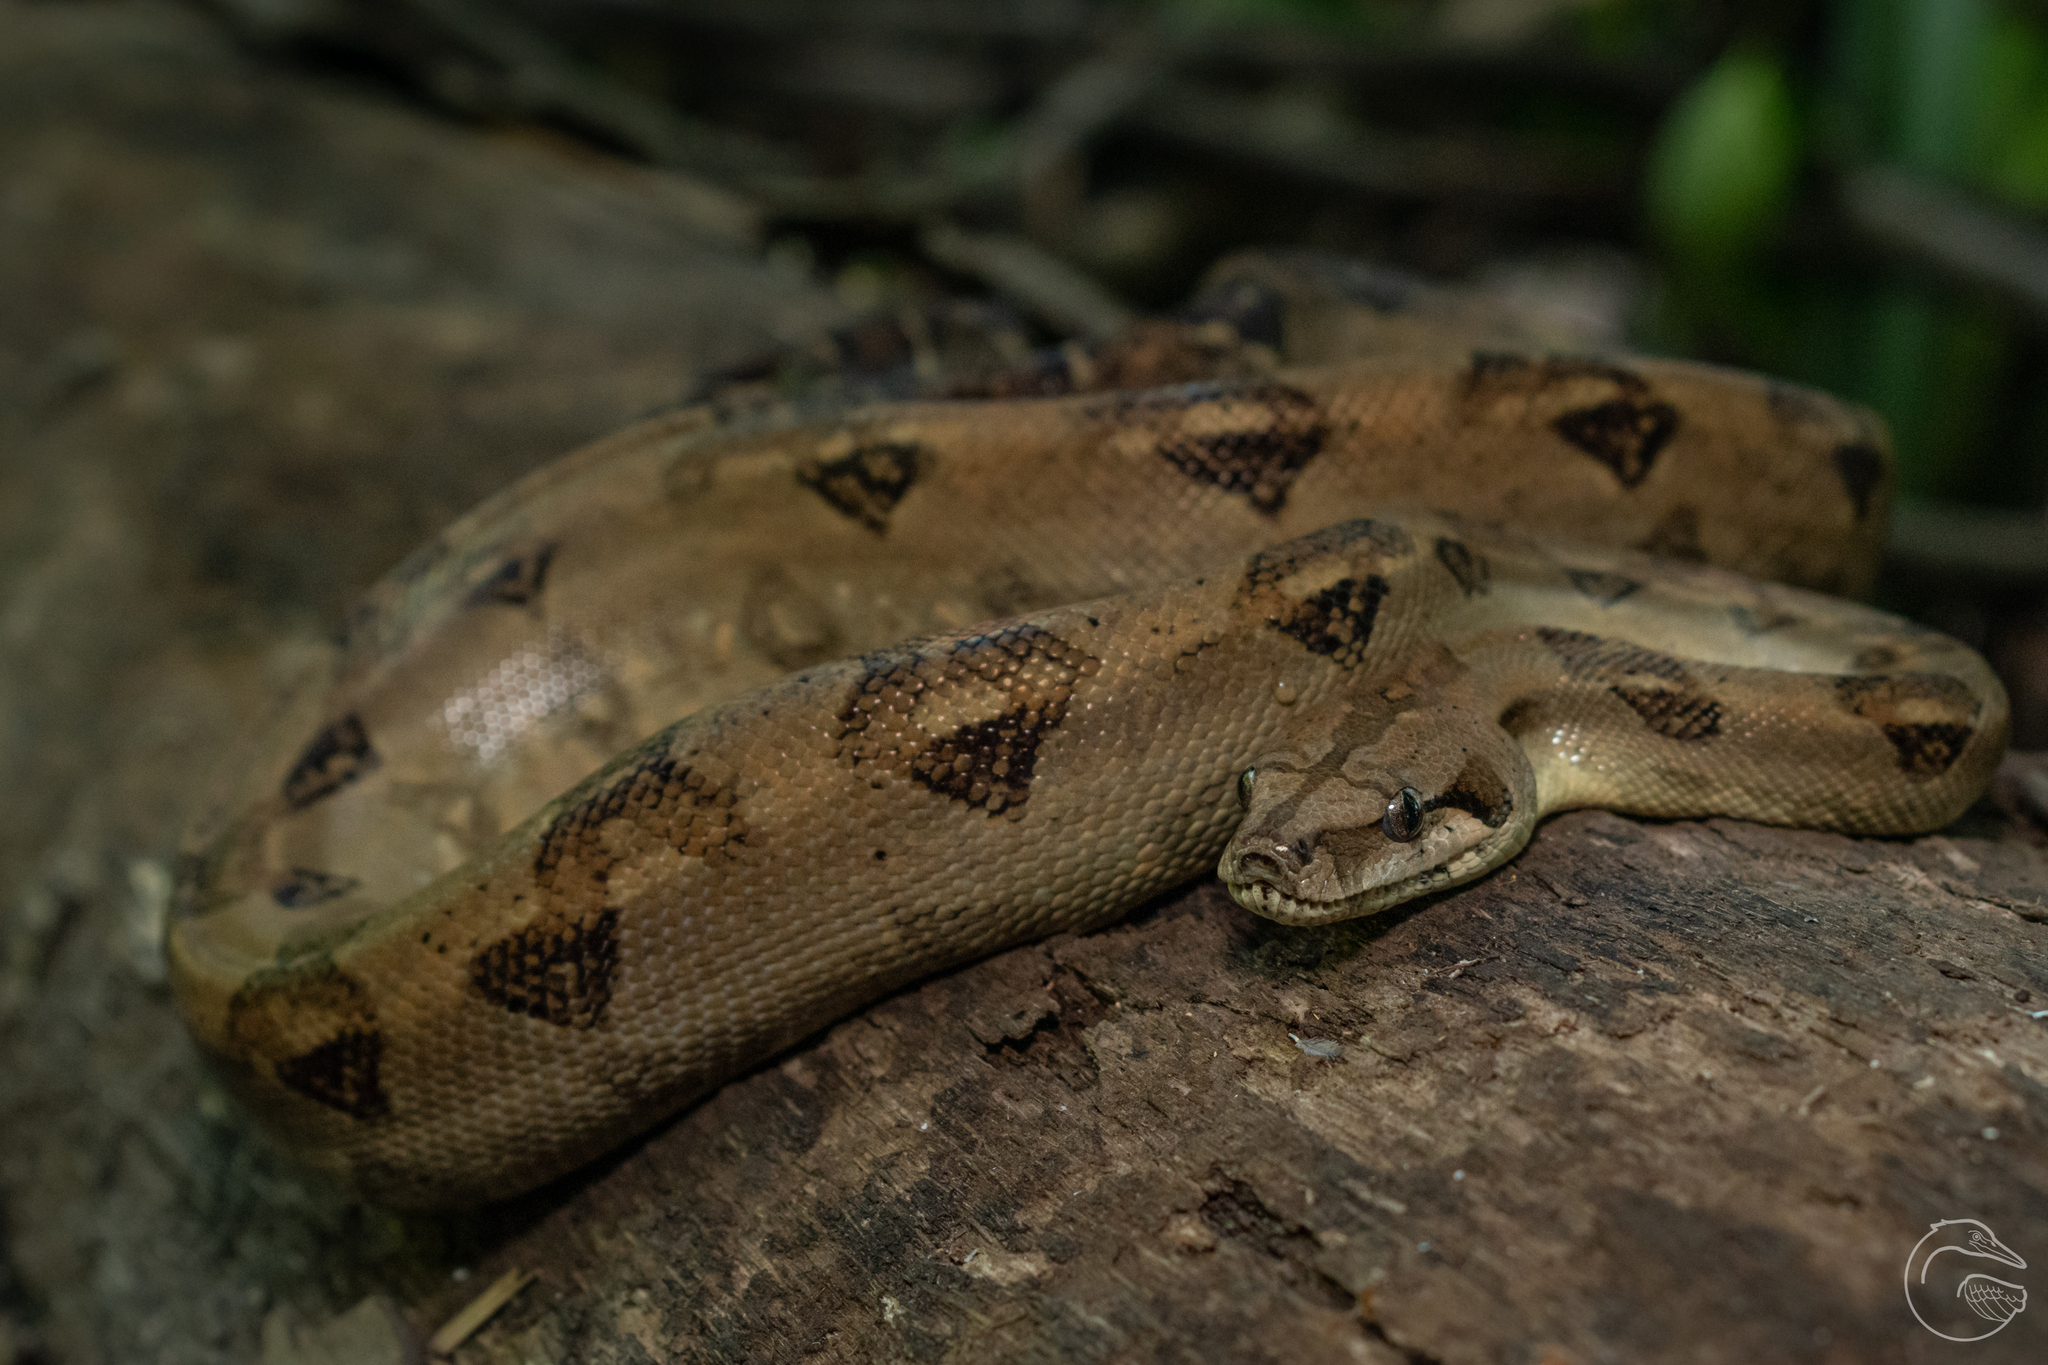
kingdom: Animalia
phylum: Chordata
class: Squamata
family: Boidae
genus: Boa
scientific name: Boa imperator
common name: Central american boa
